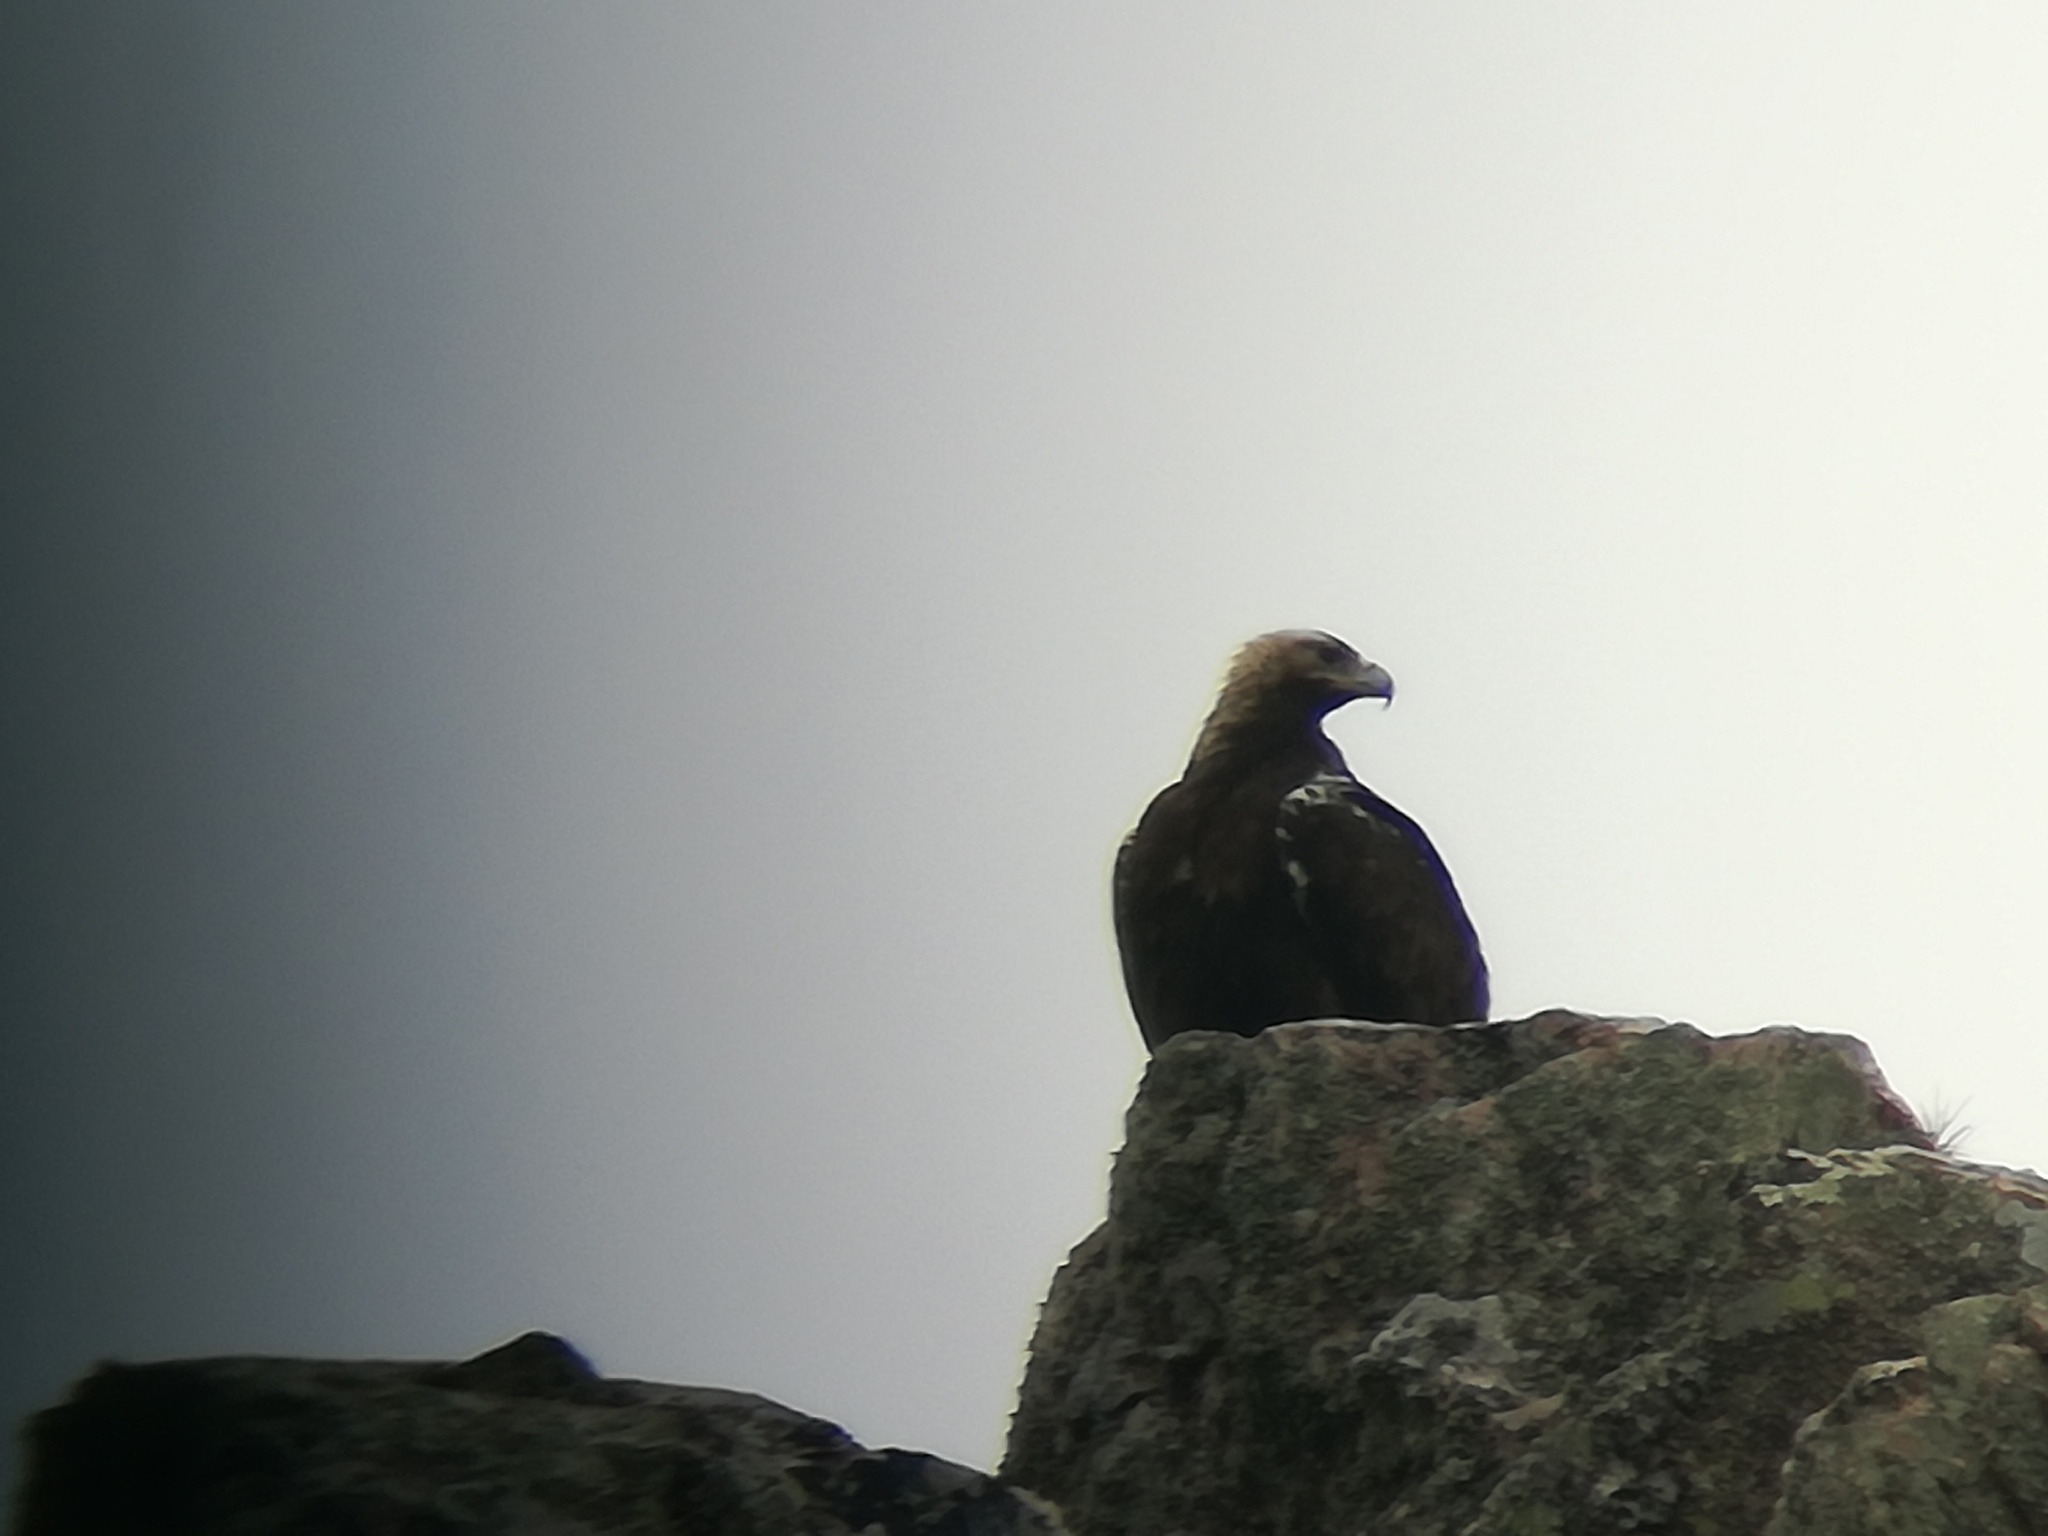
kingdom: Animalia
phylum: Chordata
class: Aves
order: Accipitriformes
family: Accipitridae
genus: Aquila
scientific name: Aquila adalberti
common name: Spanish imperial eagle
